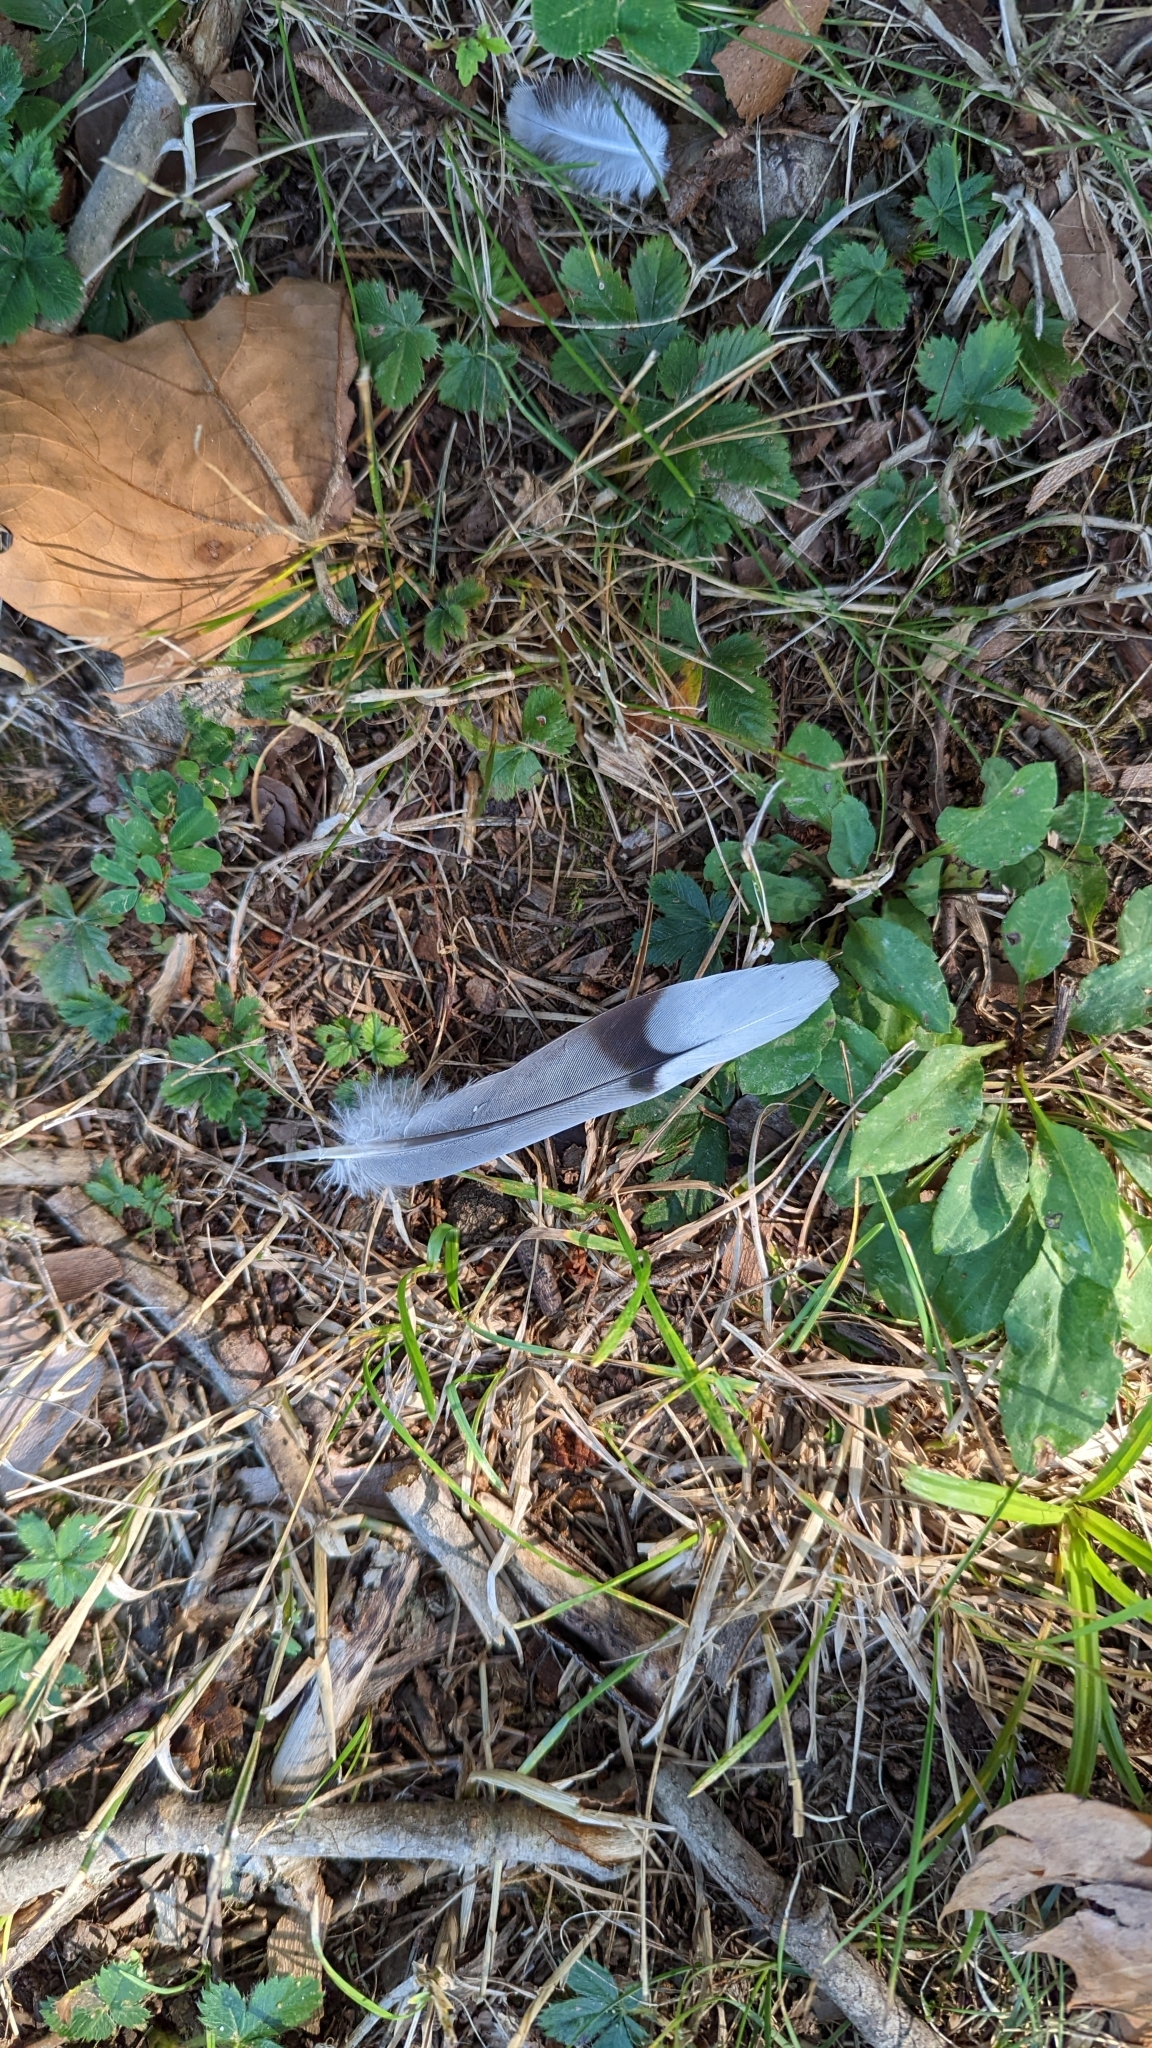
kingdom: Animalia
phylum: Chordata
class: Aves
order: Columbiformes
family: Columbidae
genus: Zenaida
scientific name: Zenaida macroura
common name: Mourning dove
